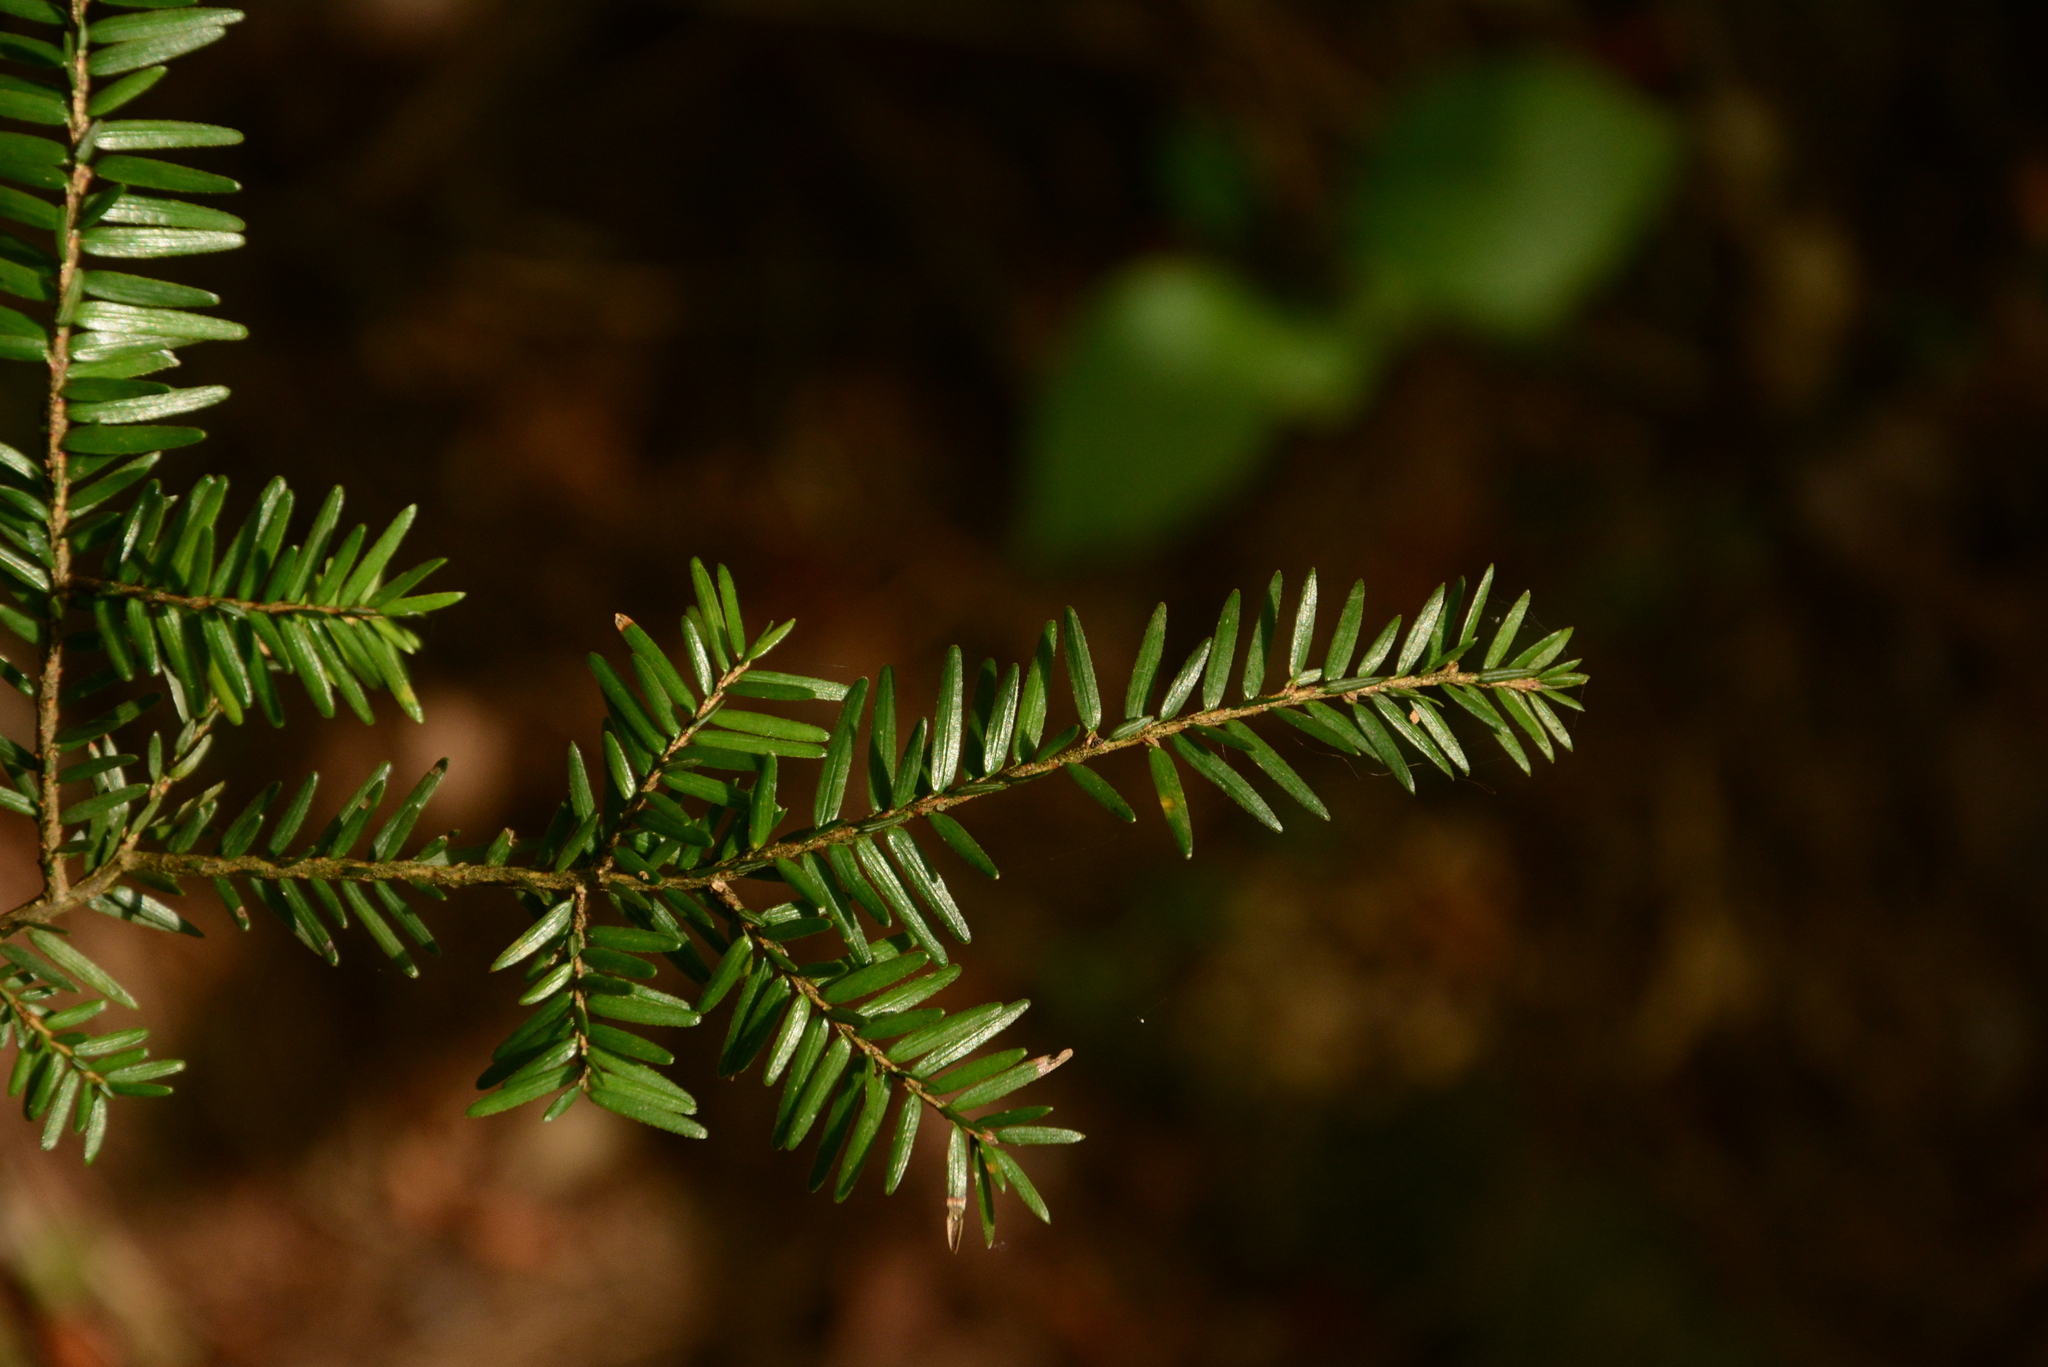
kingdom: Plantae
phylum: Tracheophyta
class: Pinopsida
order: Pinales
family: Pinaceae
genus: Tsuga
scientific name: Tsuga canadensis
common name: Eastern hemlock
